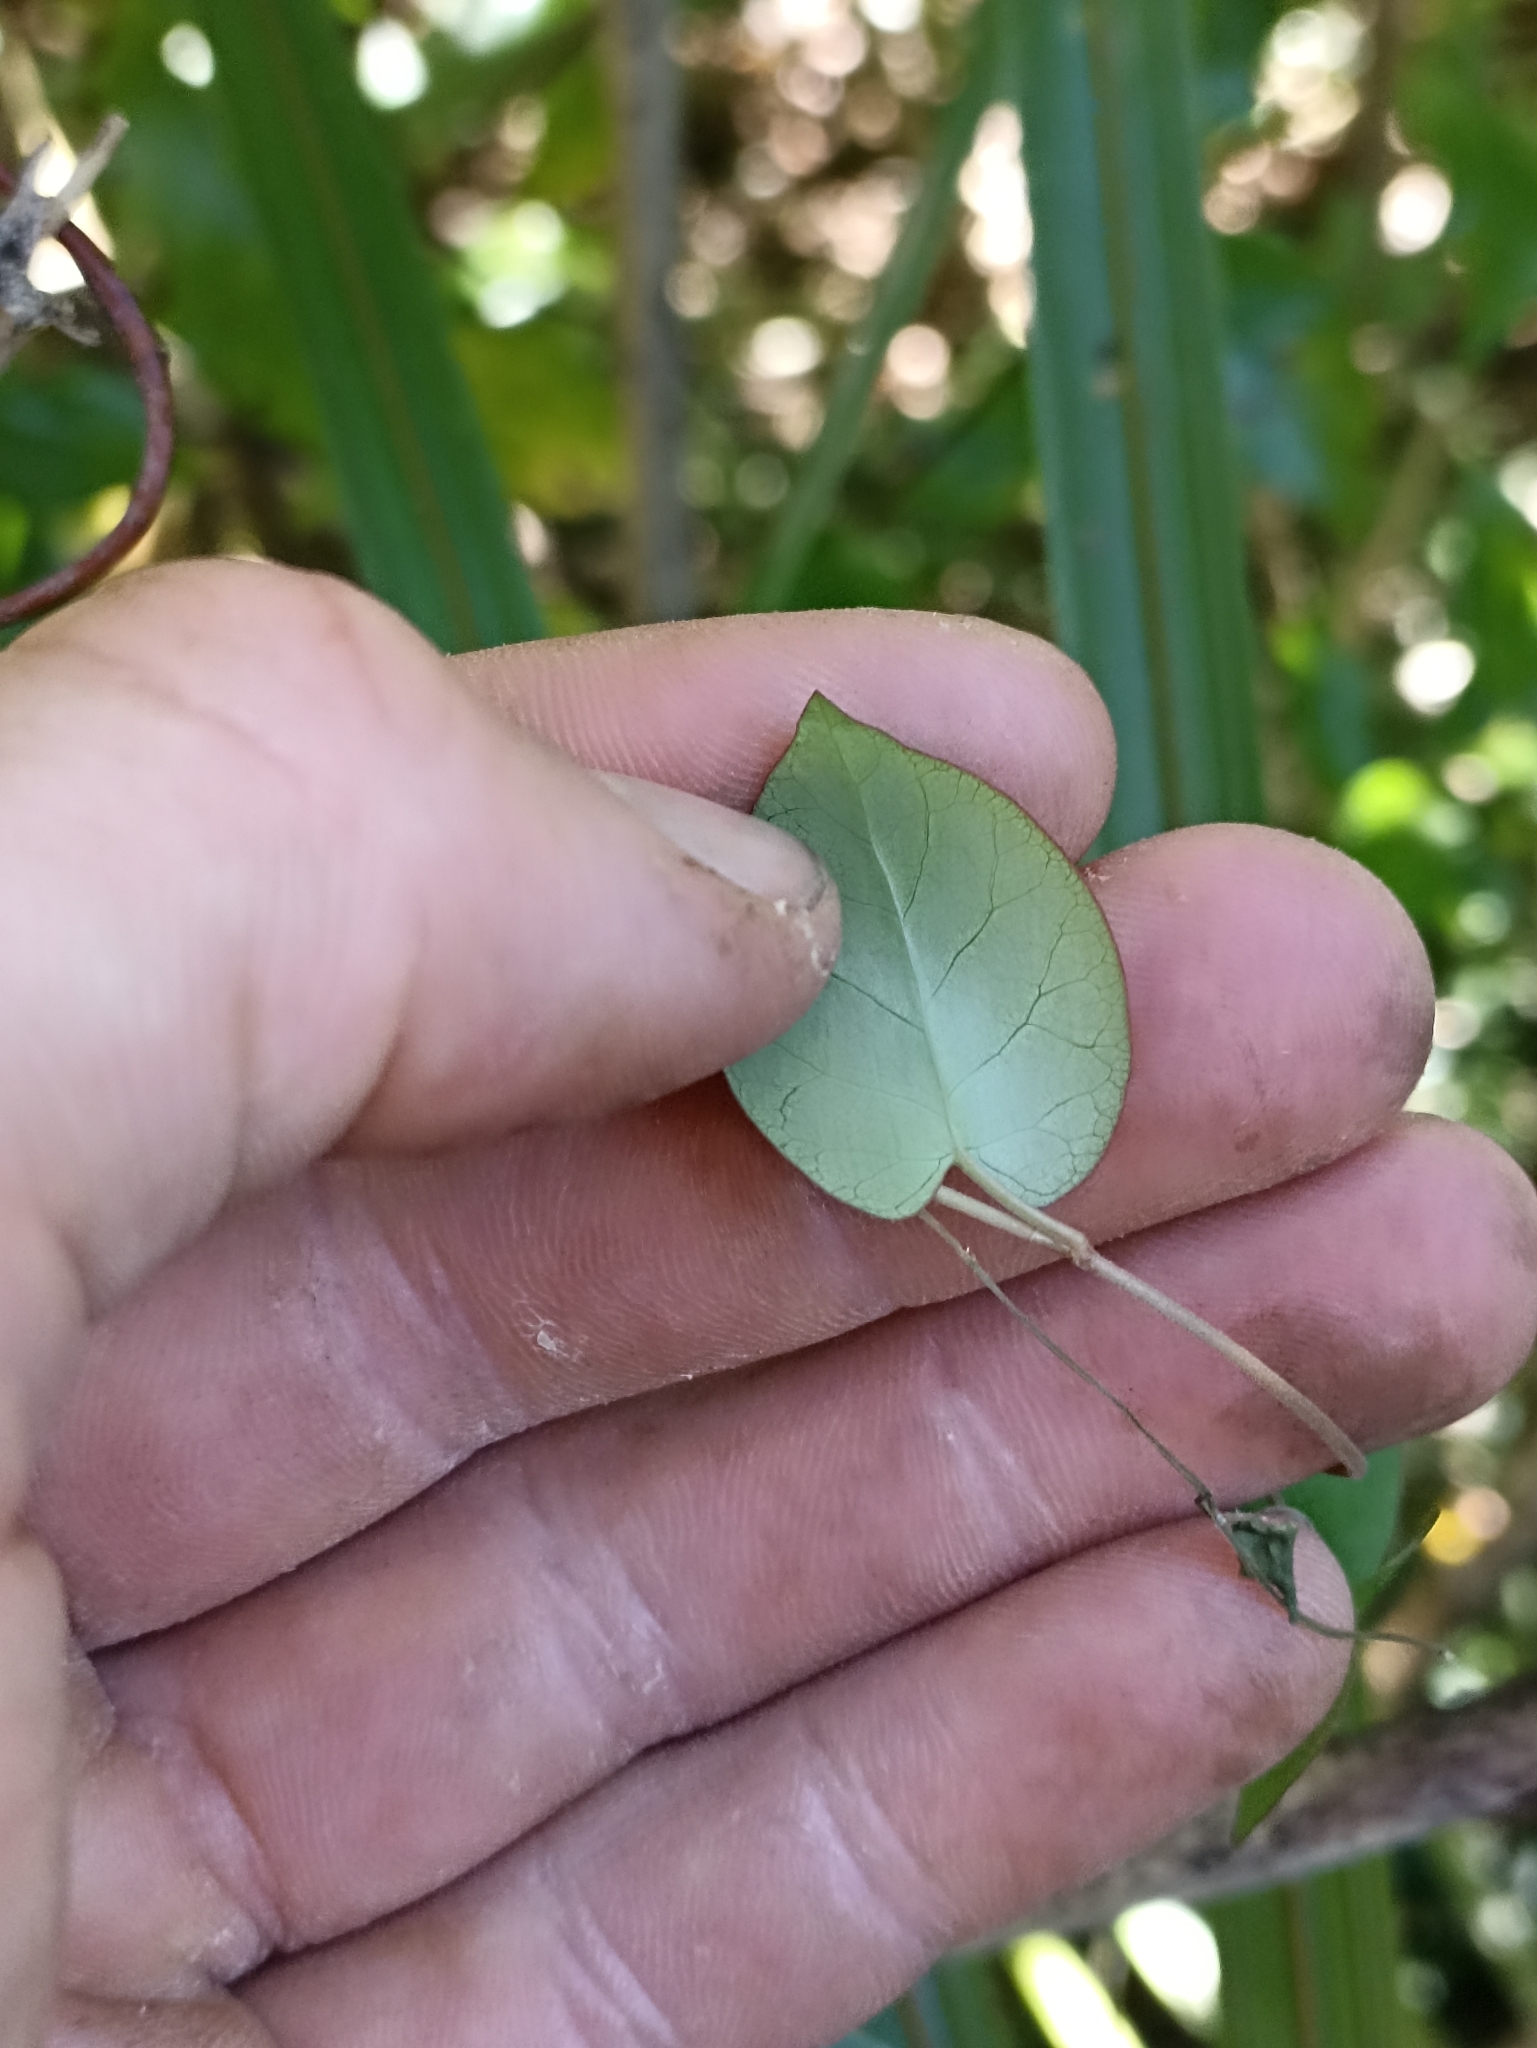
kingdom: Plantae
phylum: Tracheophyta
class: Magnoliopsida
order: Caryophyllales
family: Polygonaceae
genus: Muehlenbeckia
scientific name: Muehlenbeckia complexa
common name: Wireplant
